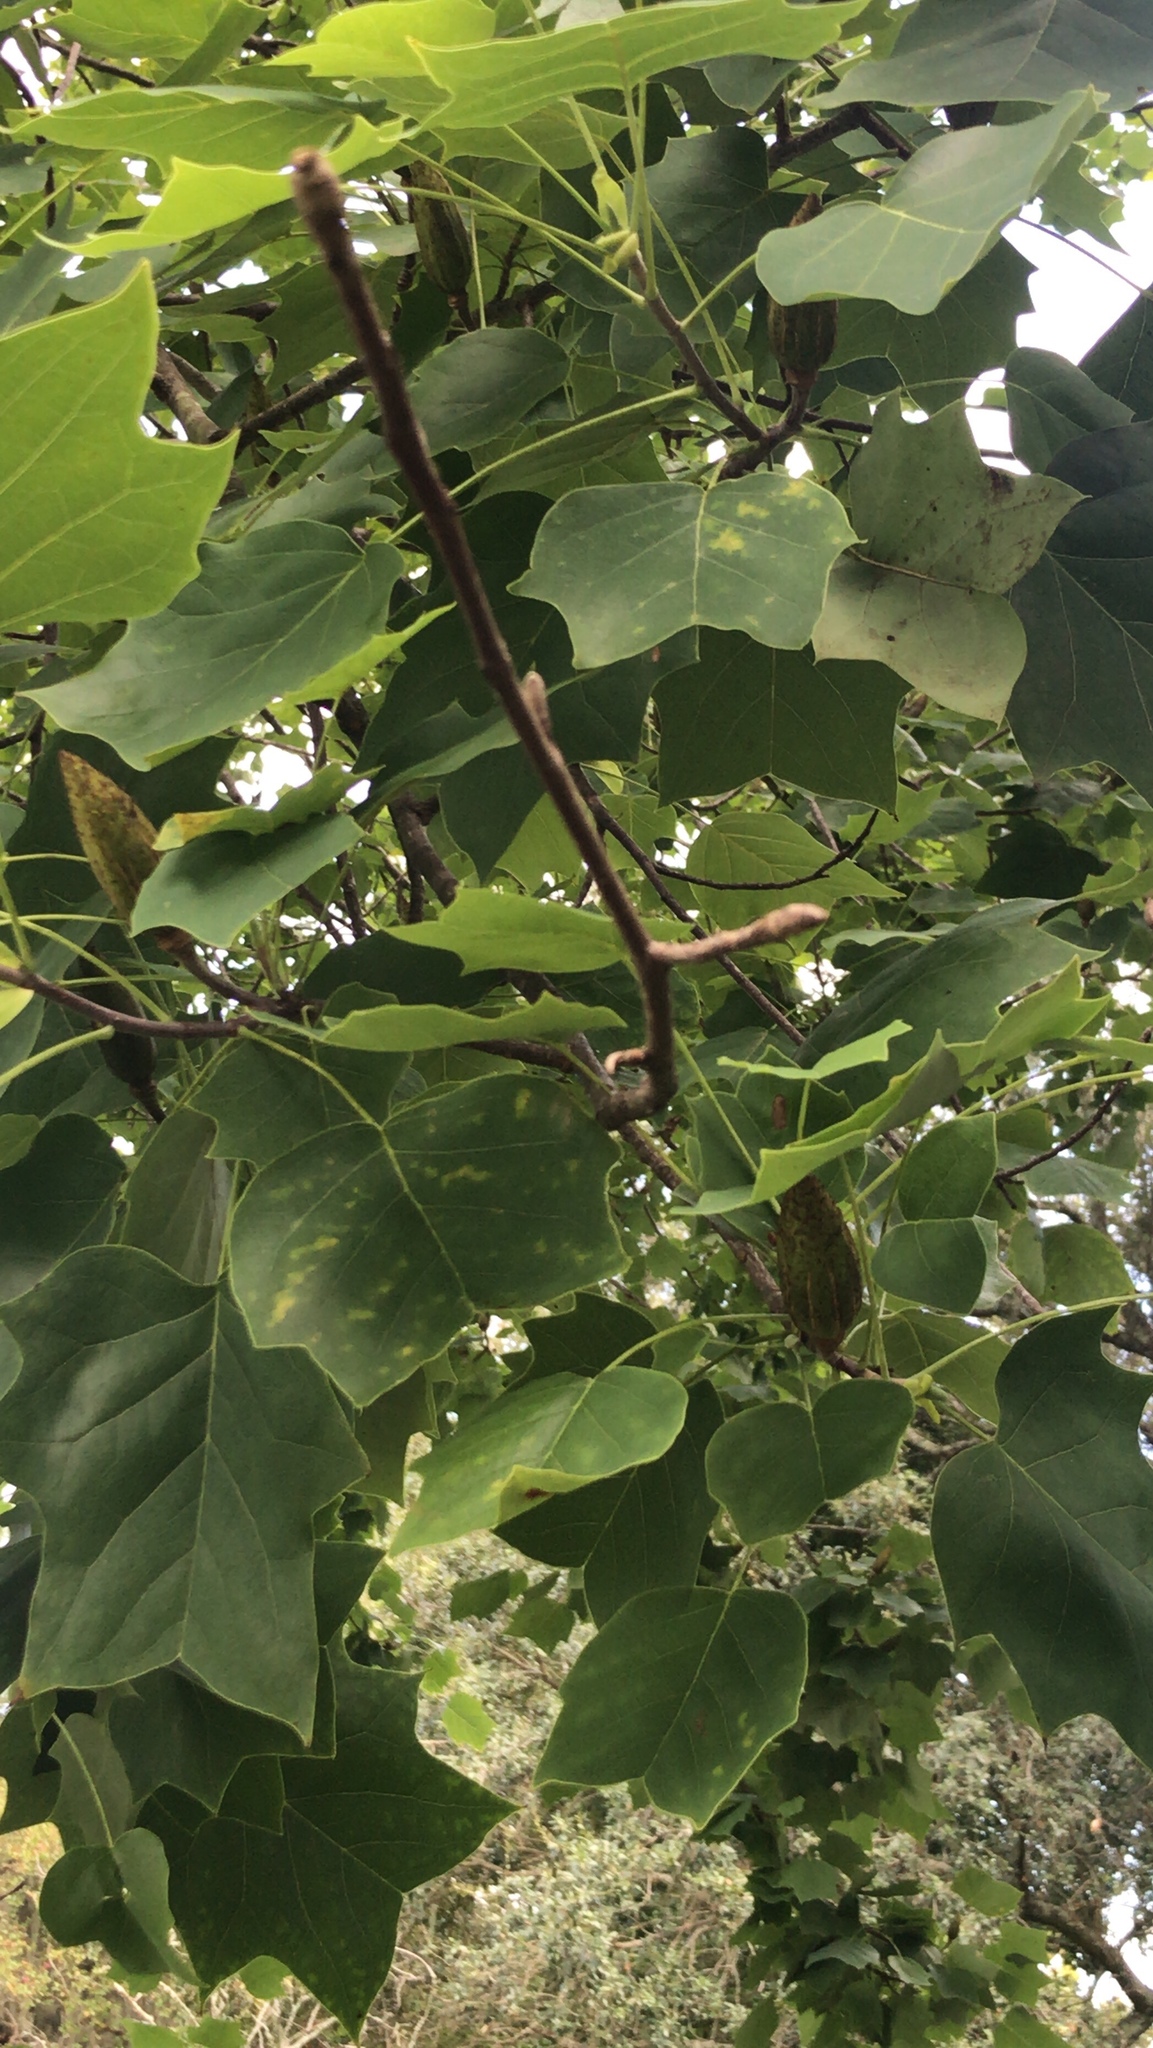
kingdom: Plantae
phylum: Tracheophyta
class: Magnoliopsida
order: Magnoliales
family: Magnoliaceae
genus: Liriodendron
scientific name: Liriodendron tulipifera
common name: Tulip tree
